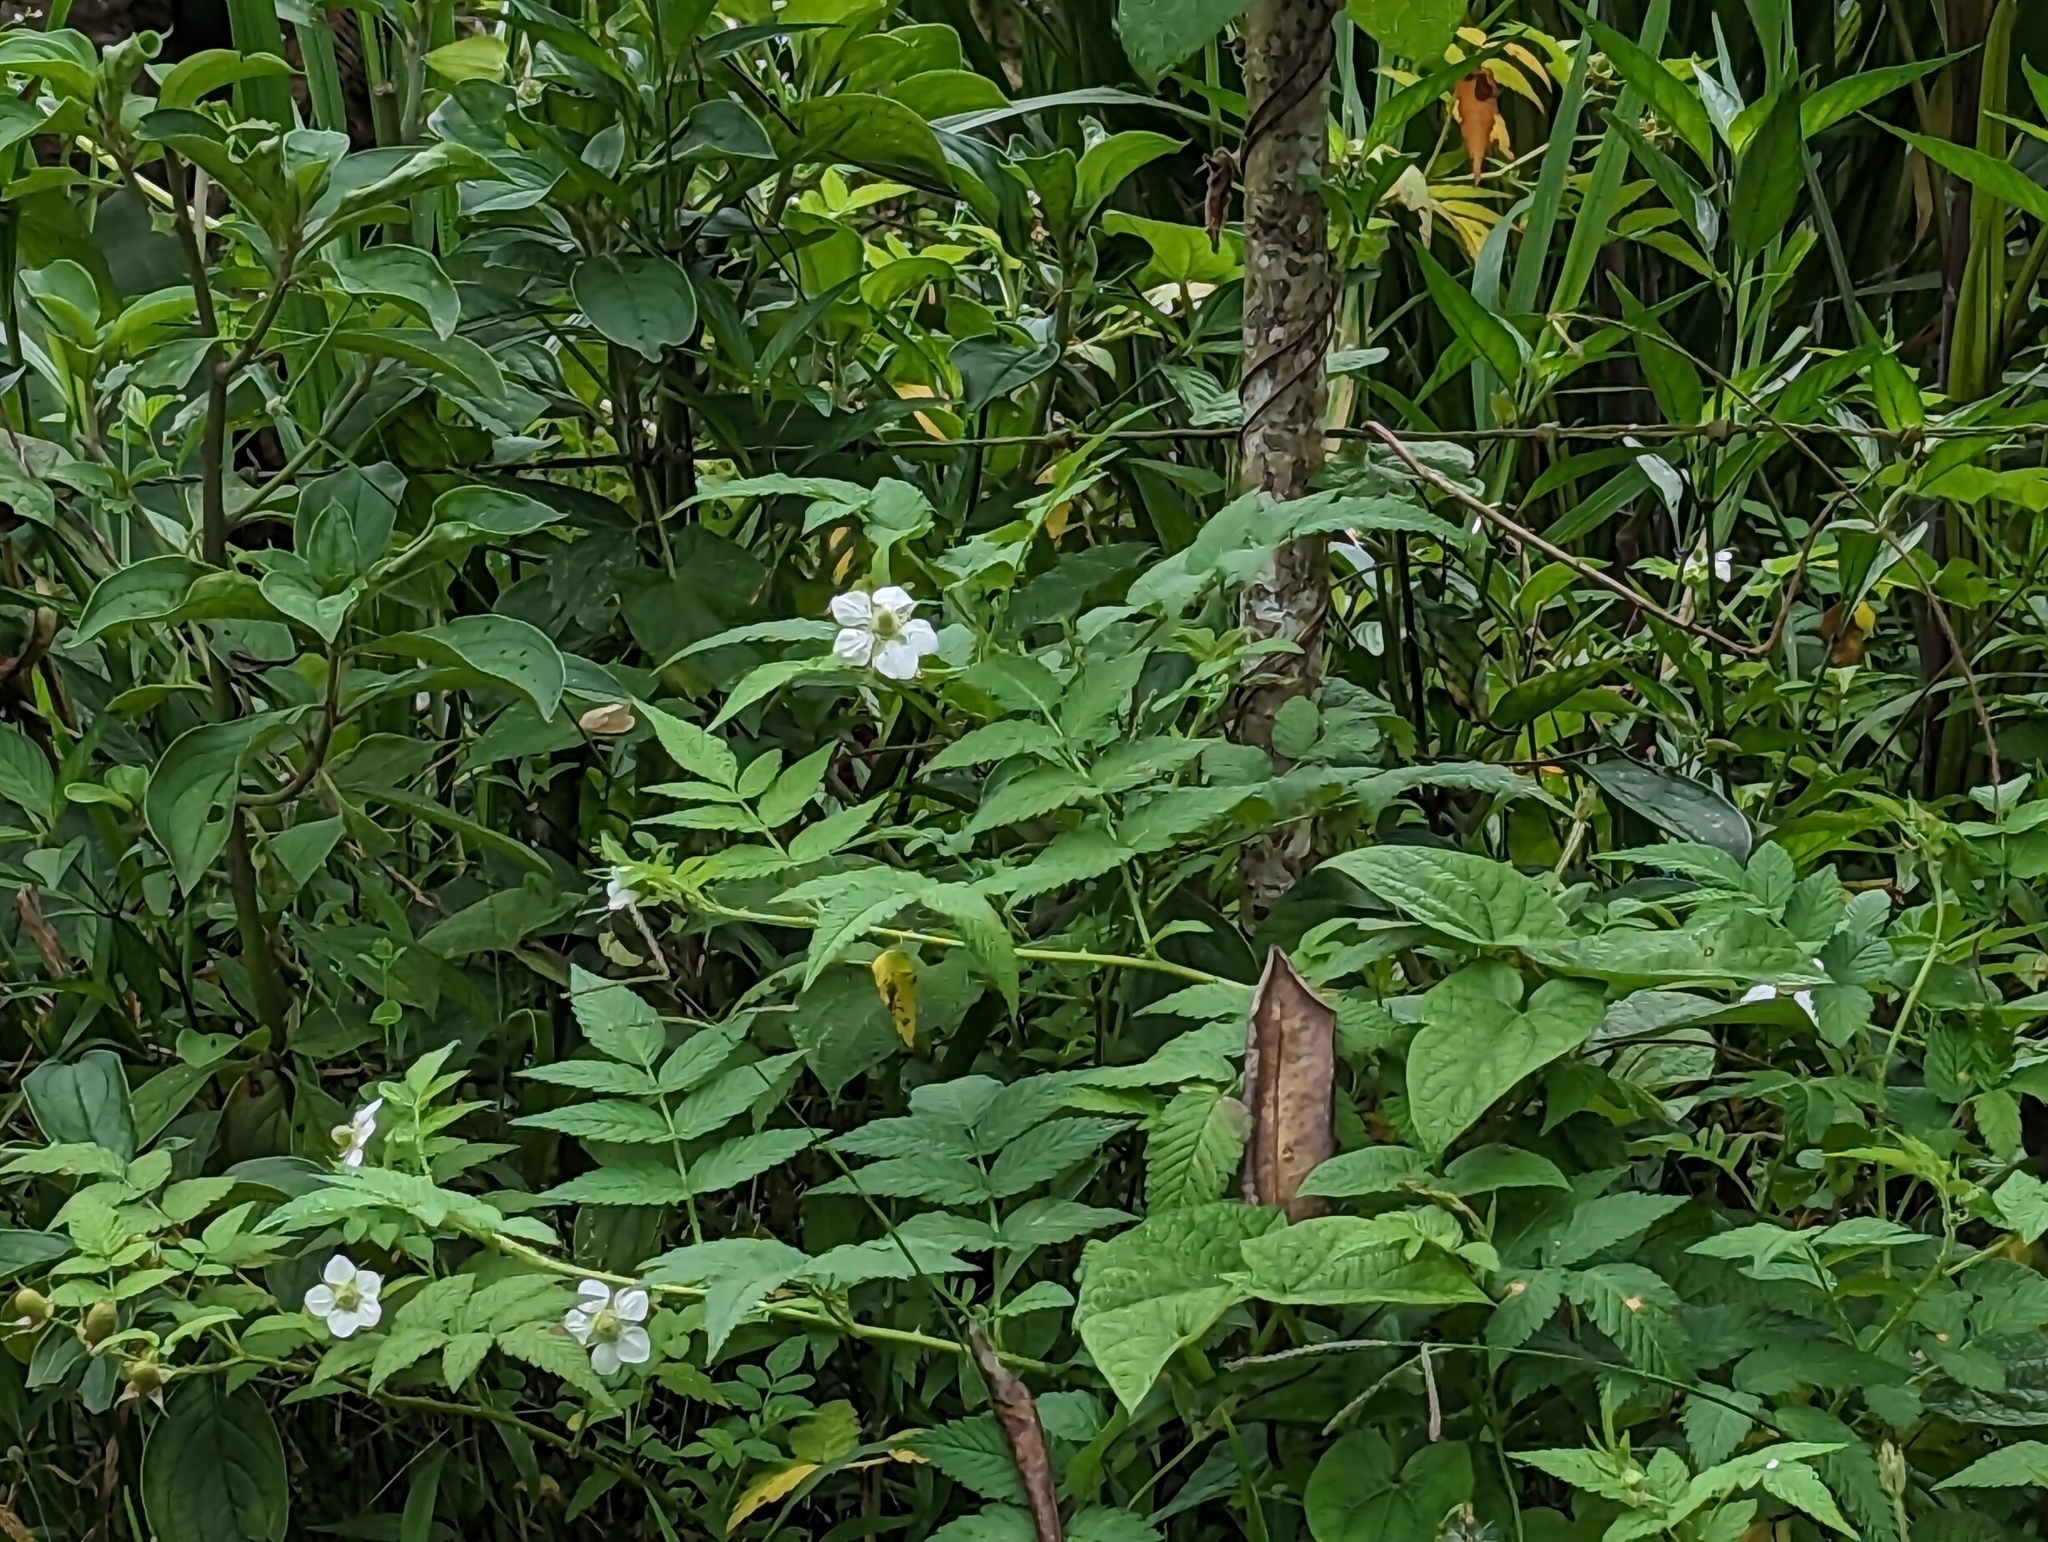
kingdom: Plantae
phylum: Tracheophyta
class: Magnoliopsida
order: Rosales
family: Rosaceae
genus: Rubus
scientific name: Rubus rosifolius
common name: Roseleaf raspberry
